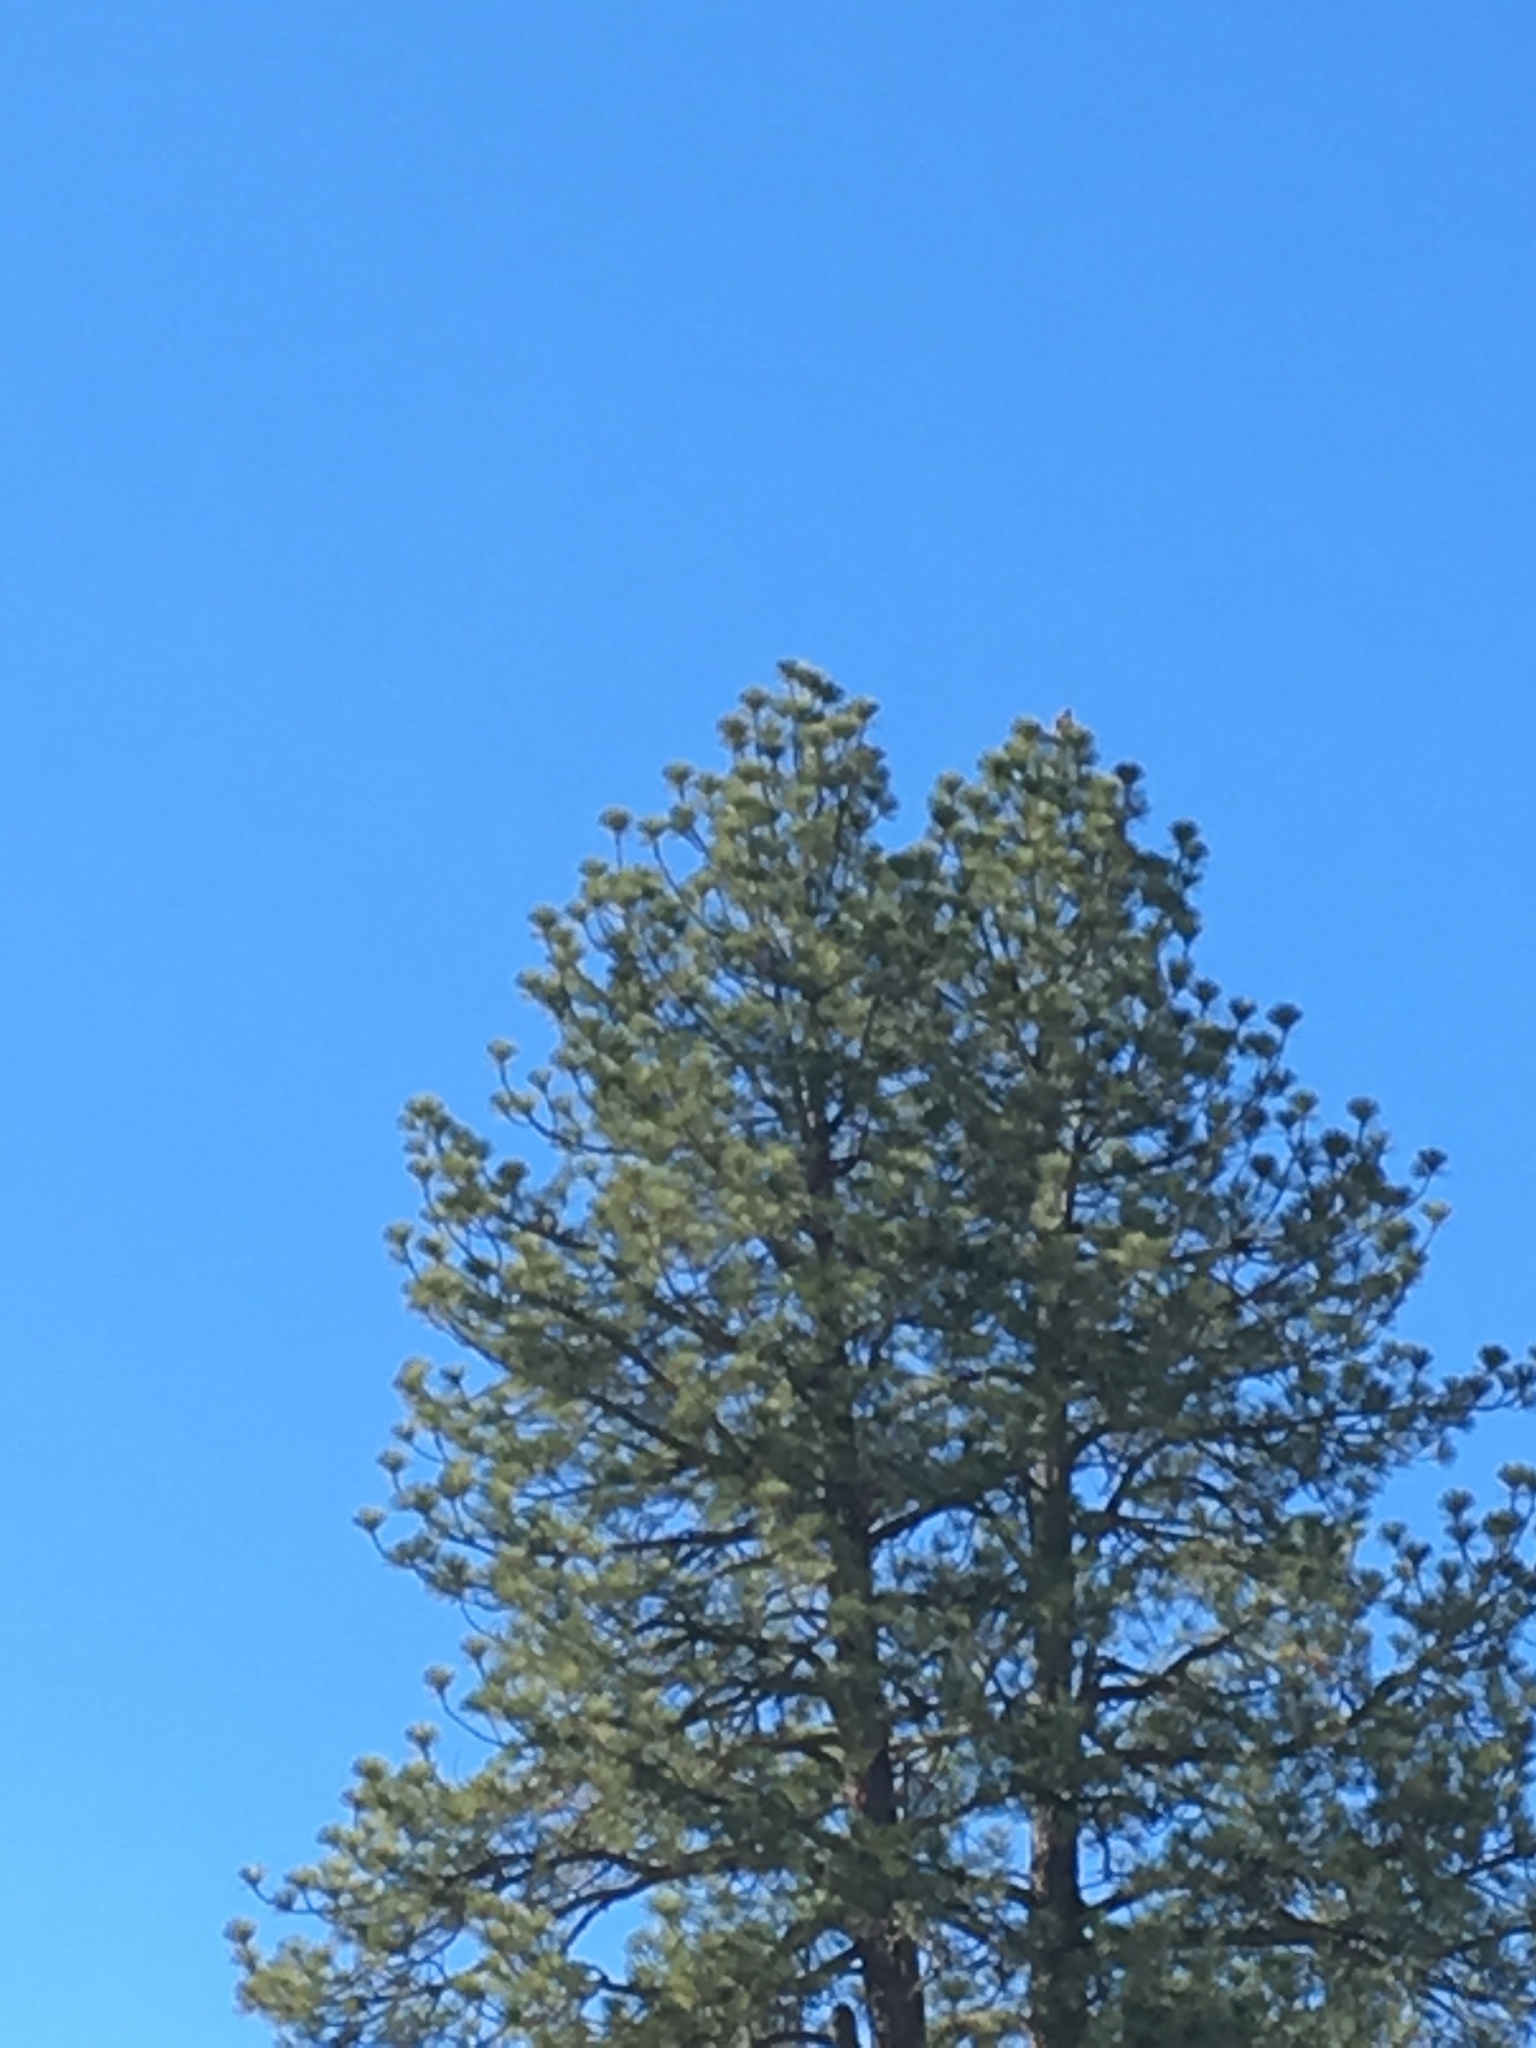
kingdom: Animalia
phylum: Chordata
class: Aves
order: Accipitriformes
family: Accipitridae
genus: Buteo
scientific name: Buteo jamaicensis
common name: Red-tailed hawk
